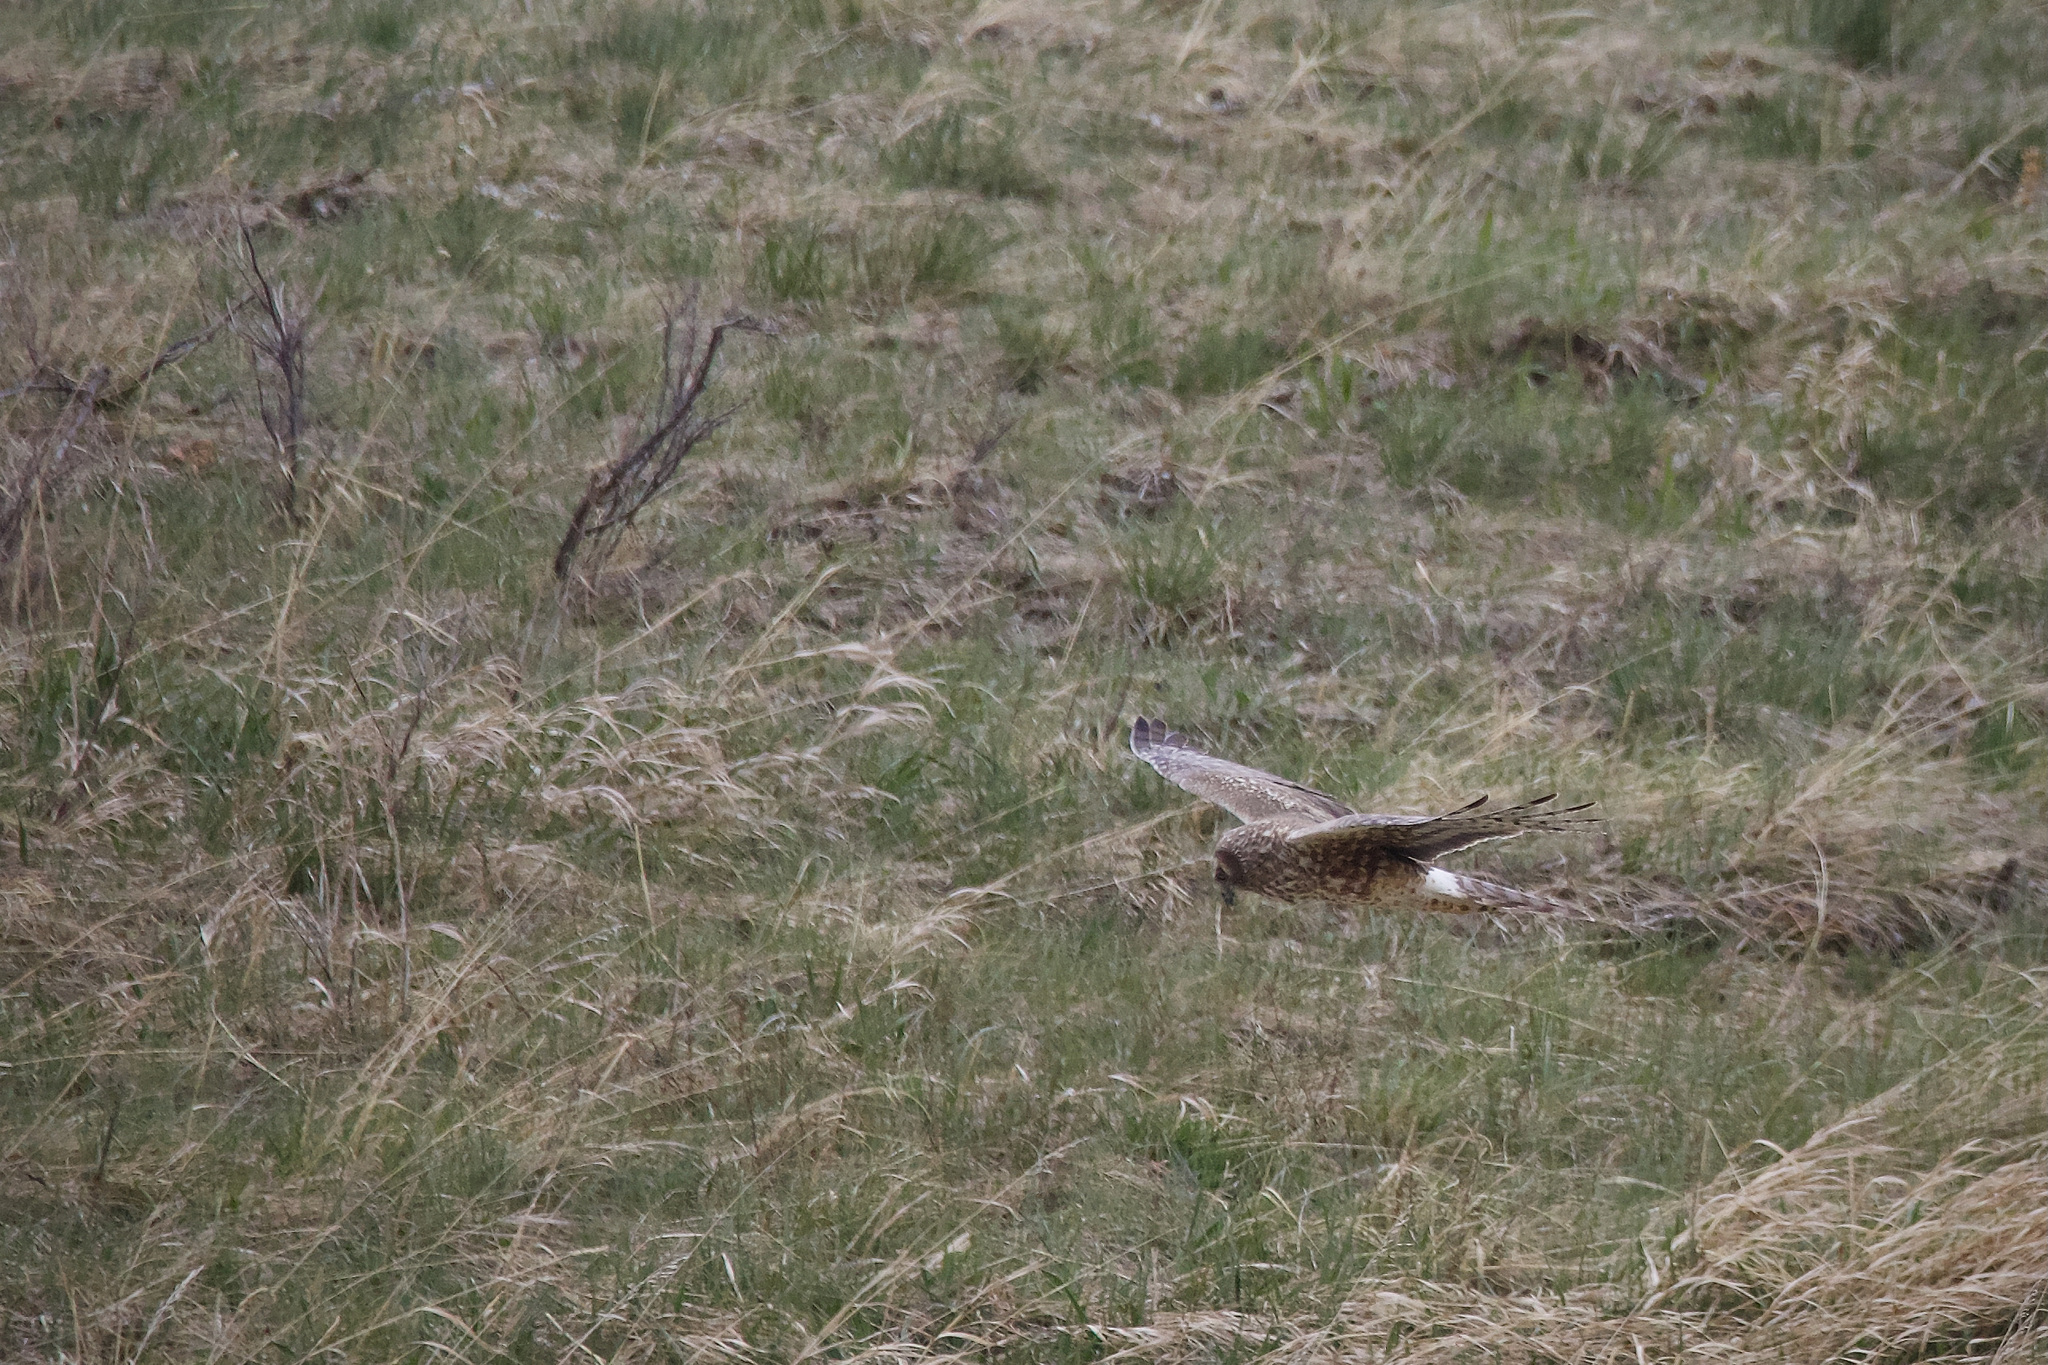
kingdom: Animalia
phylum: Chordata
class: Aves
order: Accipitriformes
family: Accipitridae
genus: Circus
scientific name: Circus cyaneus
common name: Hen harrier
